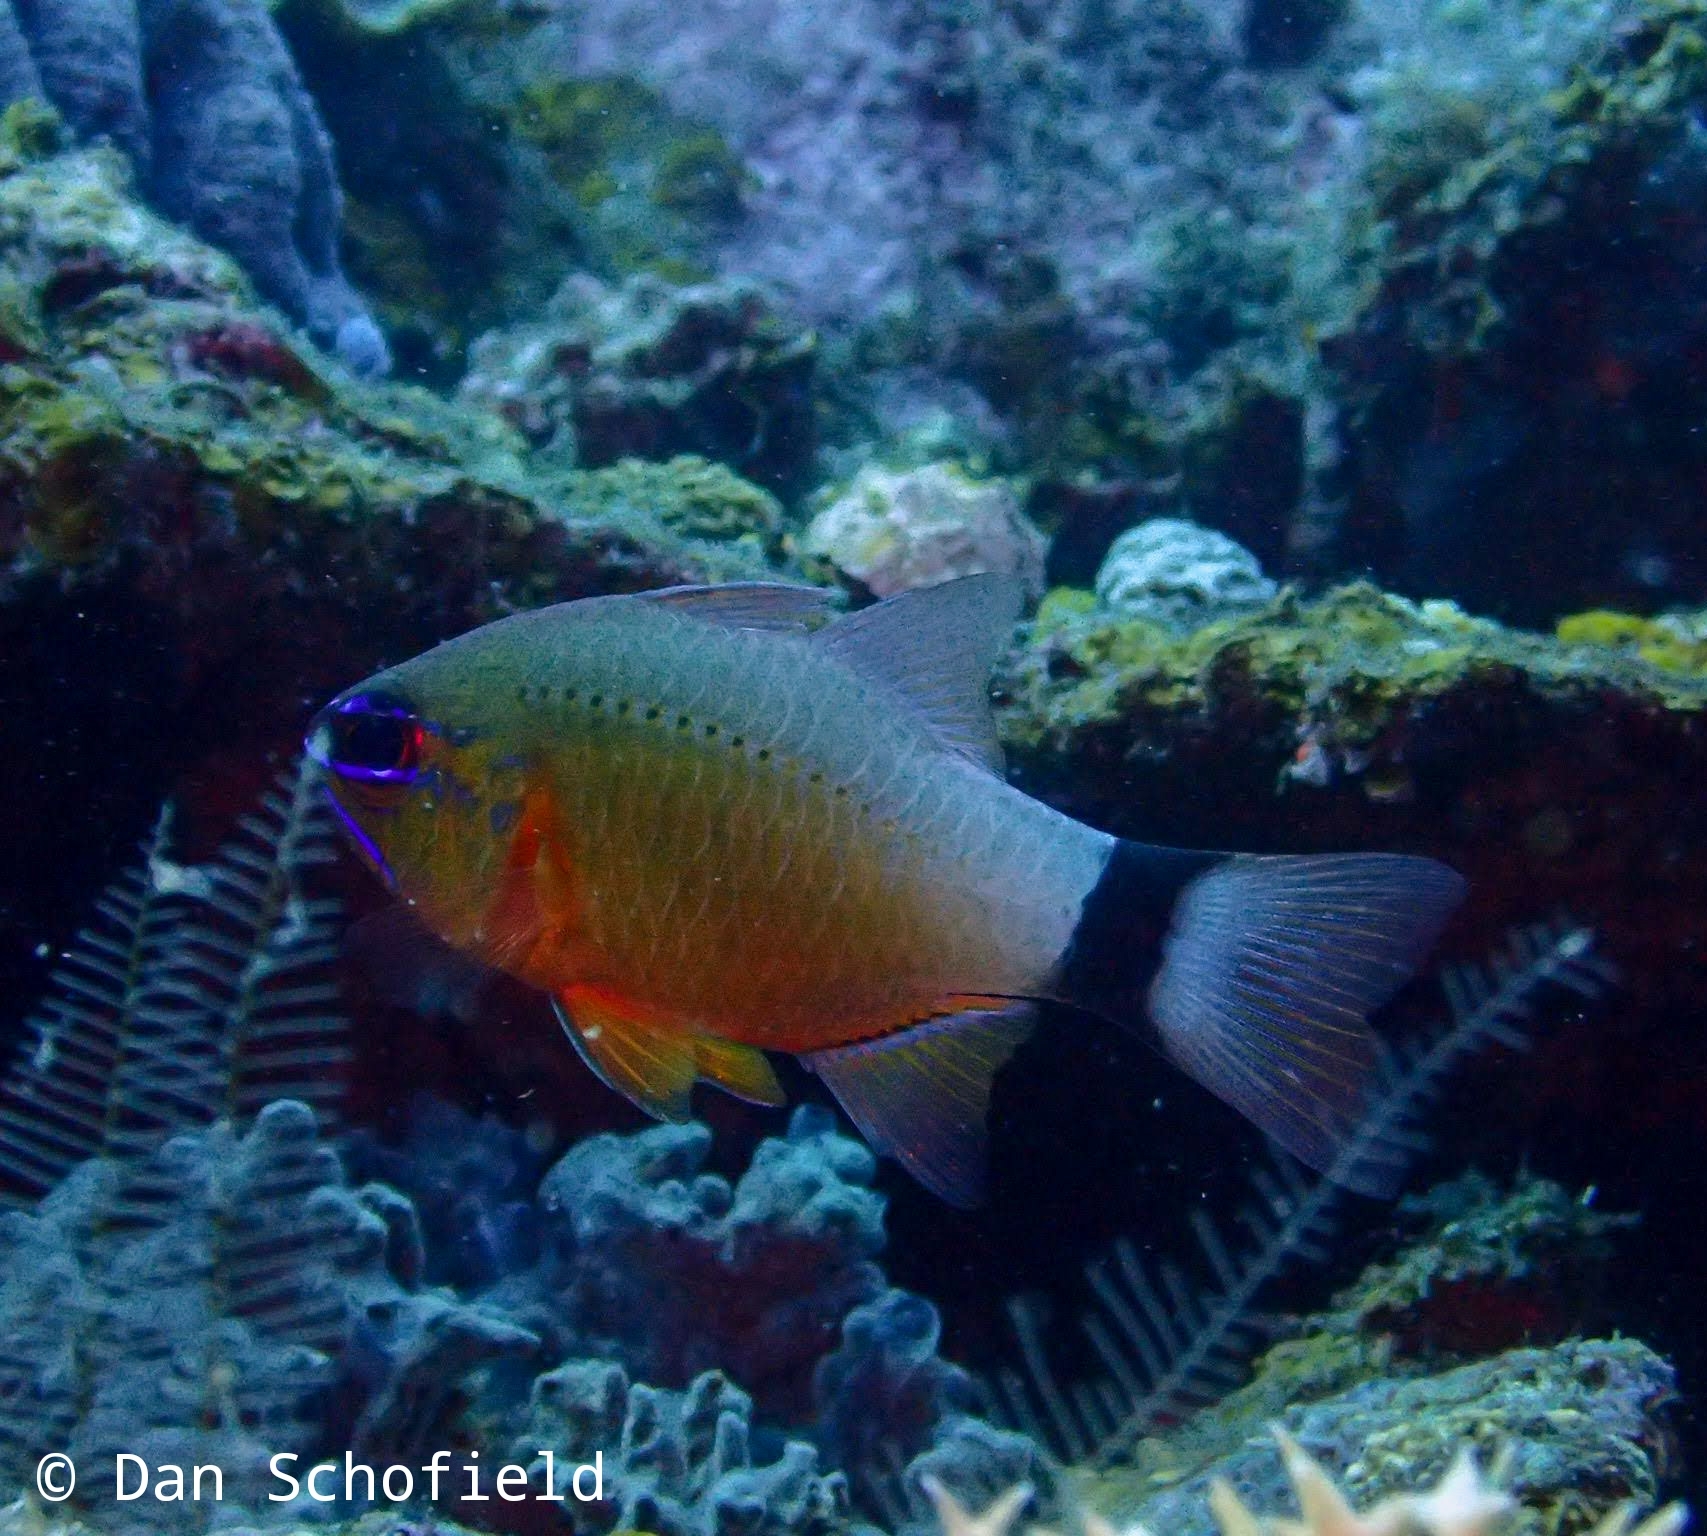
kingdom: Animalia
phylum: Chordata
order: Perciformes
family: Apogonidae
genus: Ostorhinchus
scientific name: Ostorhinchus aureus
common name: Ring-tailed cardinalfish
